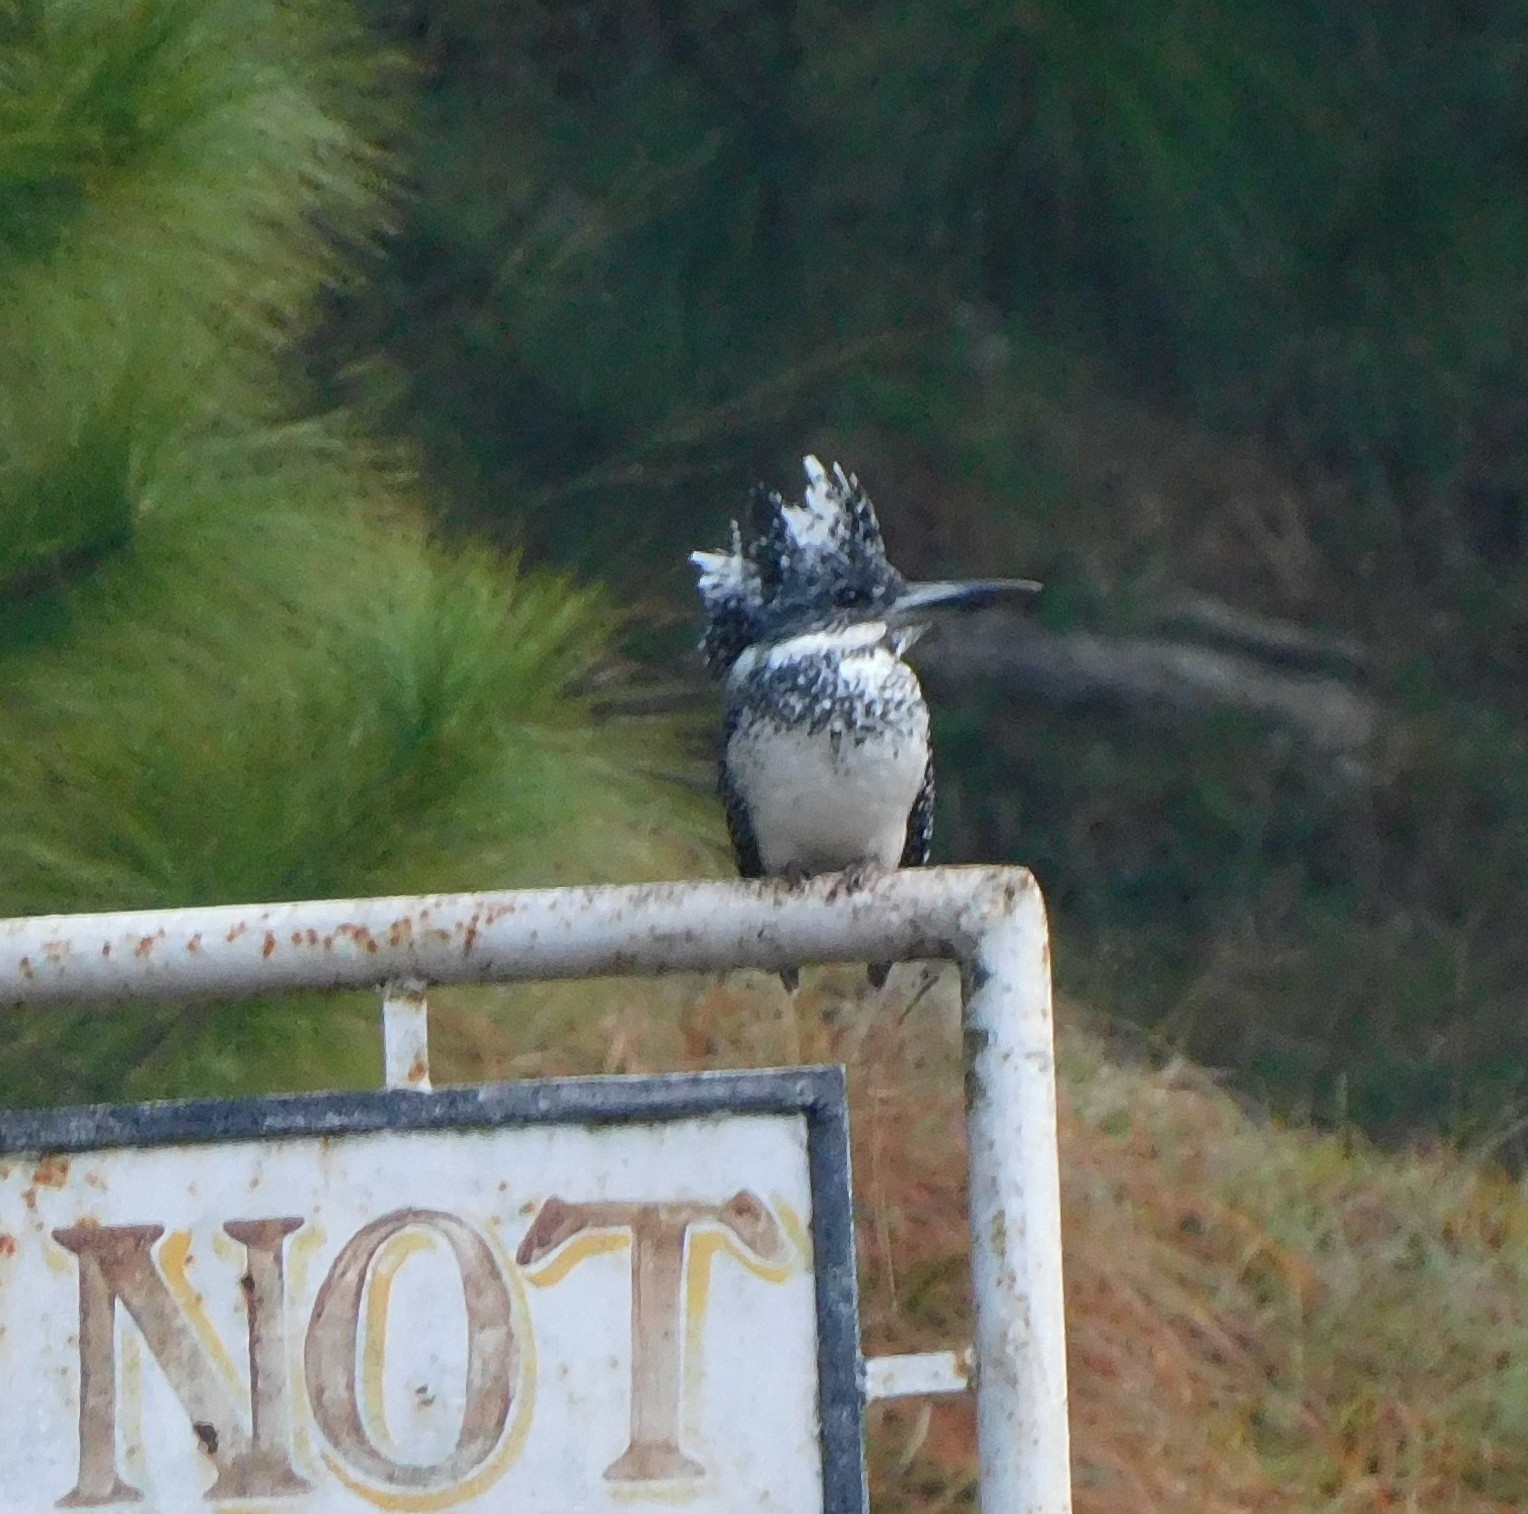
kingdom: Animalia
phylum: Chordata
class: Aves
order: Coraciiformes
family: Alcedinidae
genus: Megaceryle
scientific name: Megaceryle lugubris
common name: Crested kingfisher
